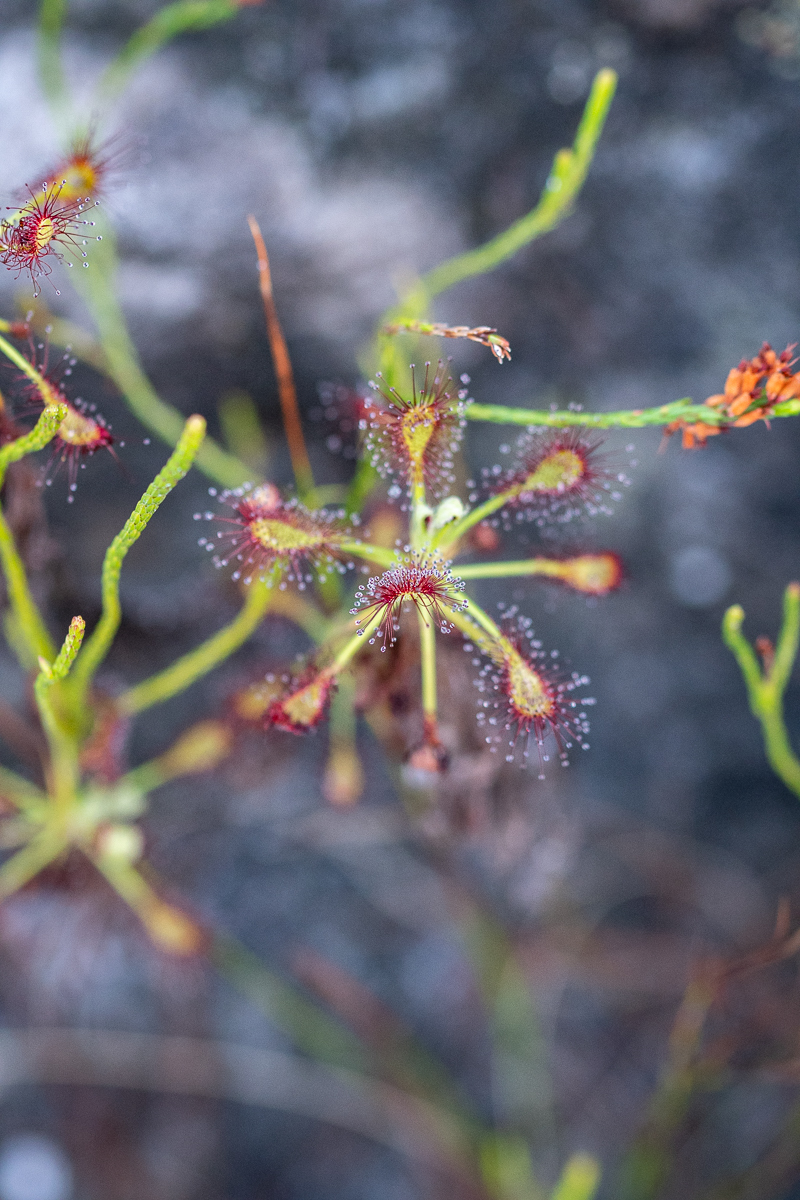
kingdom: Plantae
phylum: Tracheophyta
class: Magnoliopsida
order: Caryophyllales
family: Droseraceae
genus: Drosera
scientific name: Drosera glabripes
